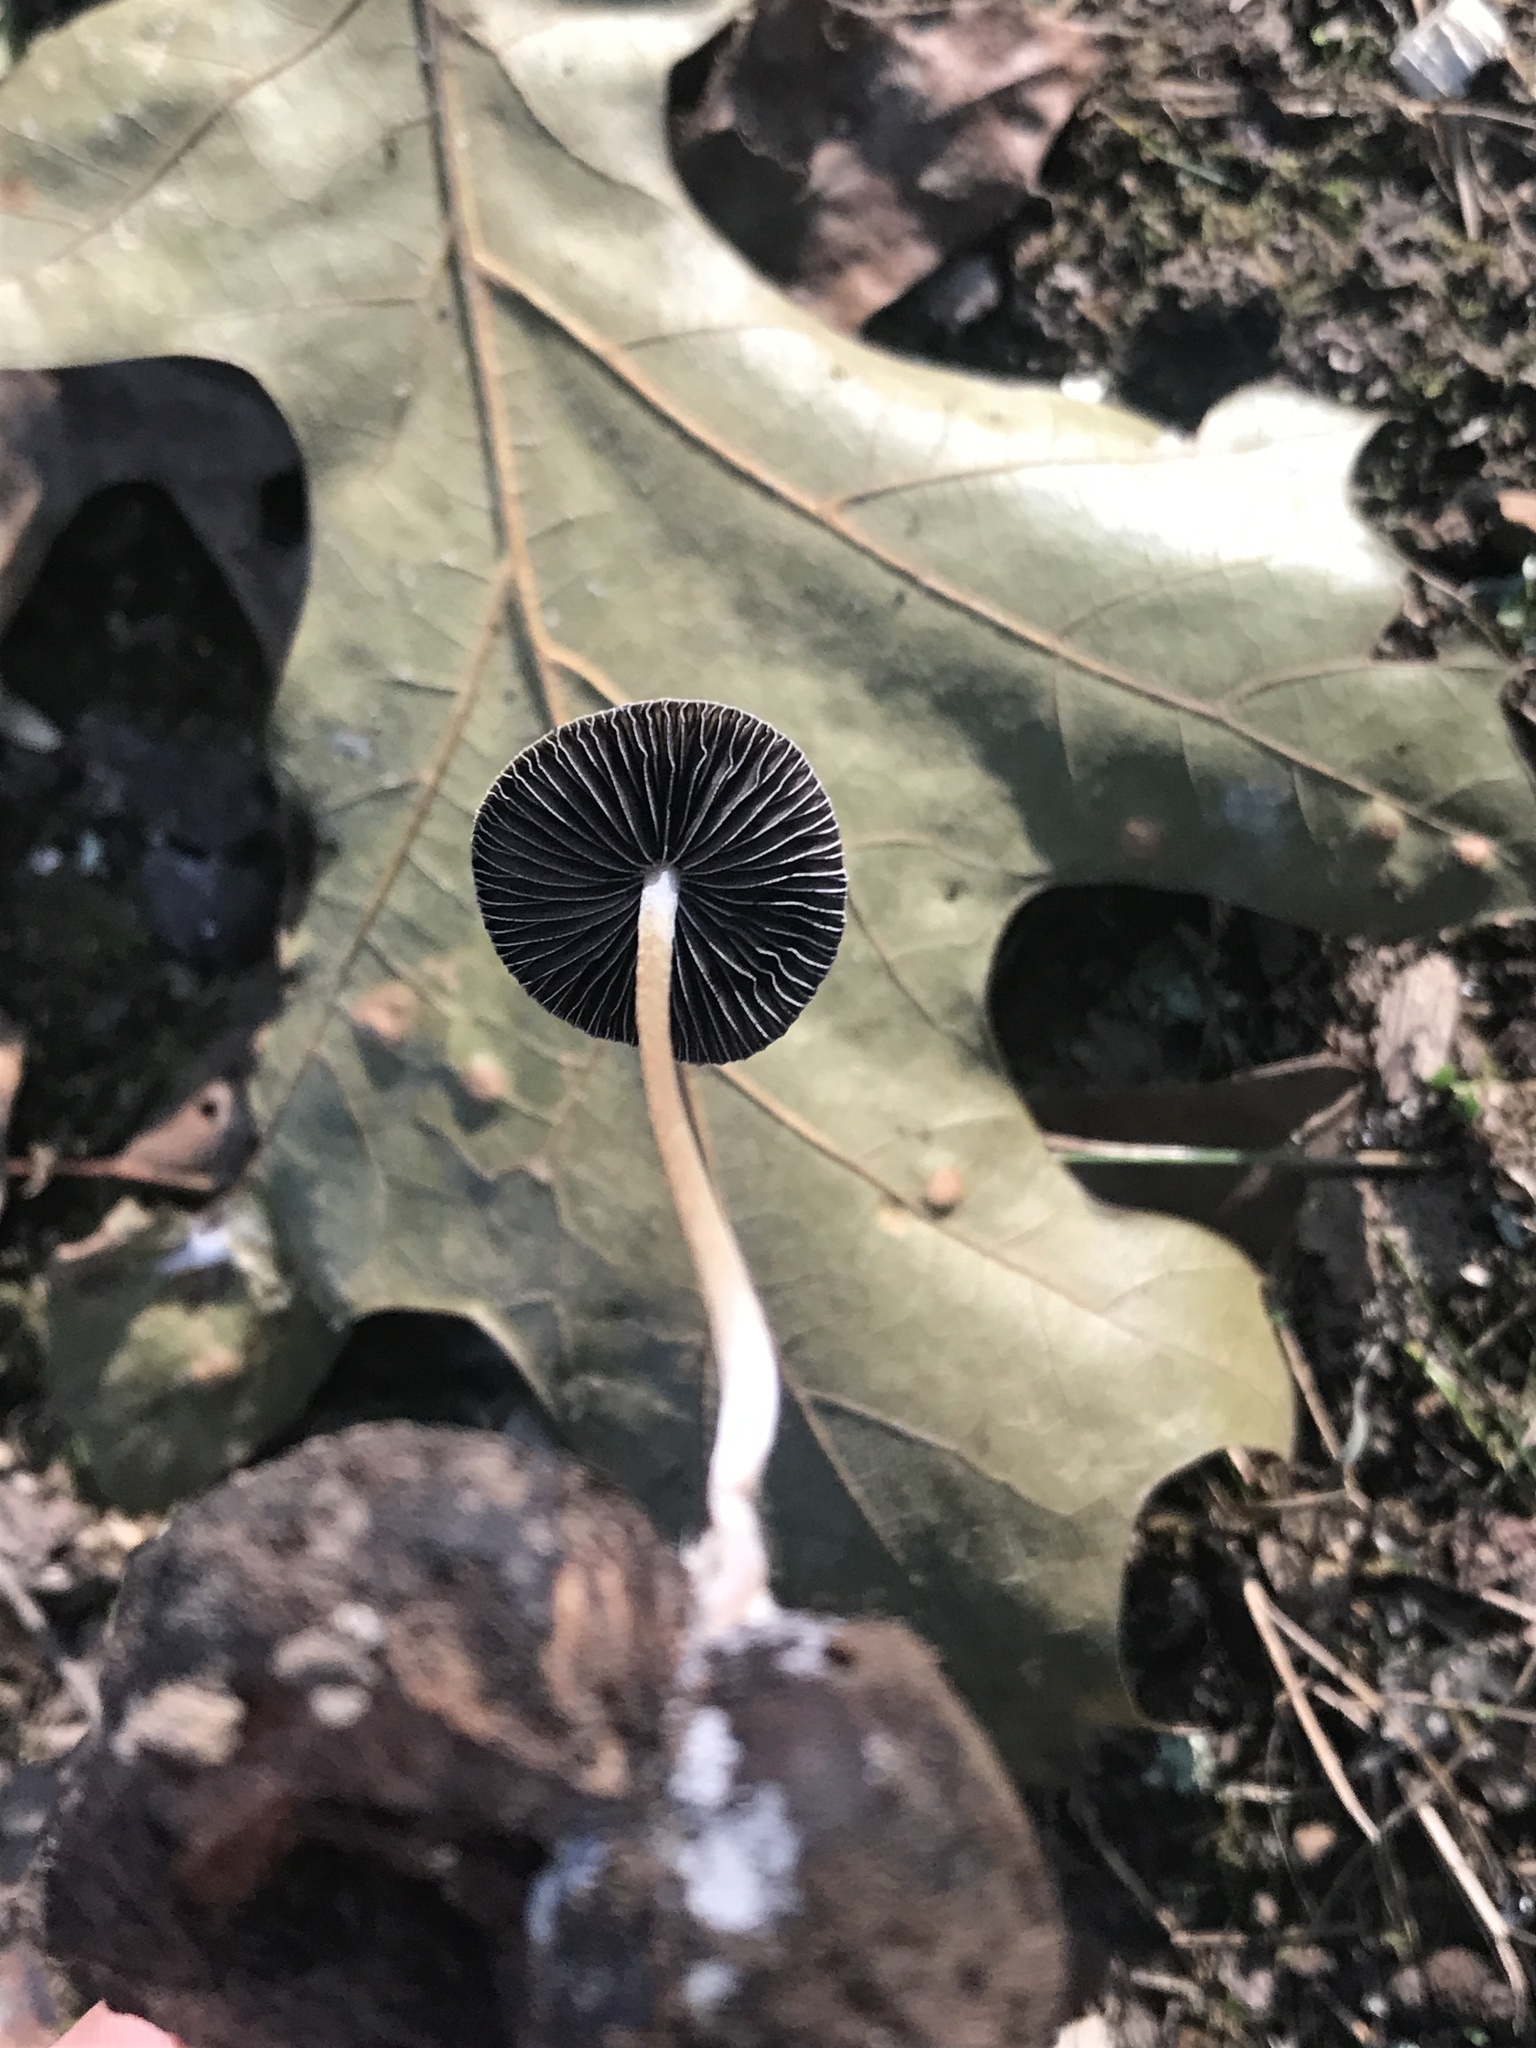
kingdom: Fungi
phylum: Basidiomycota
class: Agaricomycetes
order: Agaricales
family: Psathyrellaceae
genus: Psathyrella
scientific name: Psathyrella amarescens
